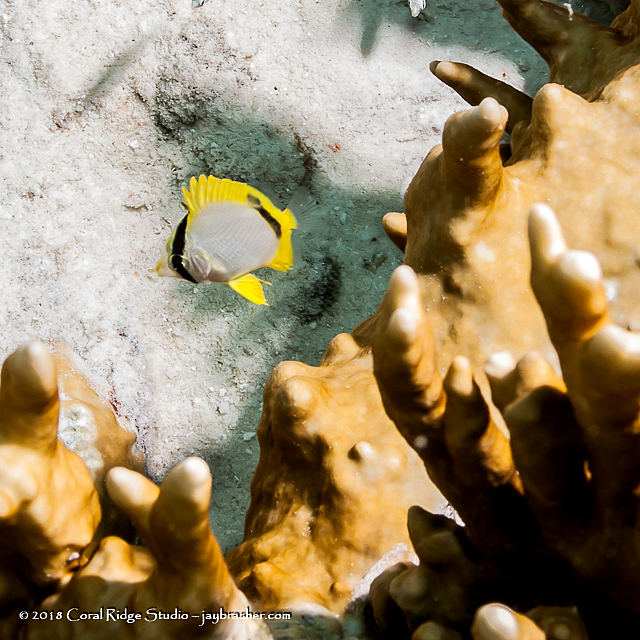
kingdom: Animalia
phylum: Chordata
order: Perciformes
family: Chaetodontidae
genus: Chaetodon
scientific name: Chaetodon ocellatus
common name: Spotfin butterflyfish
